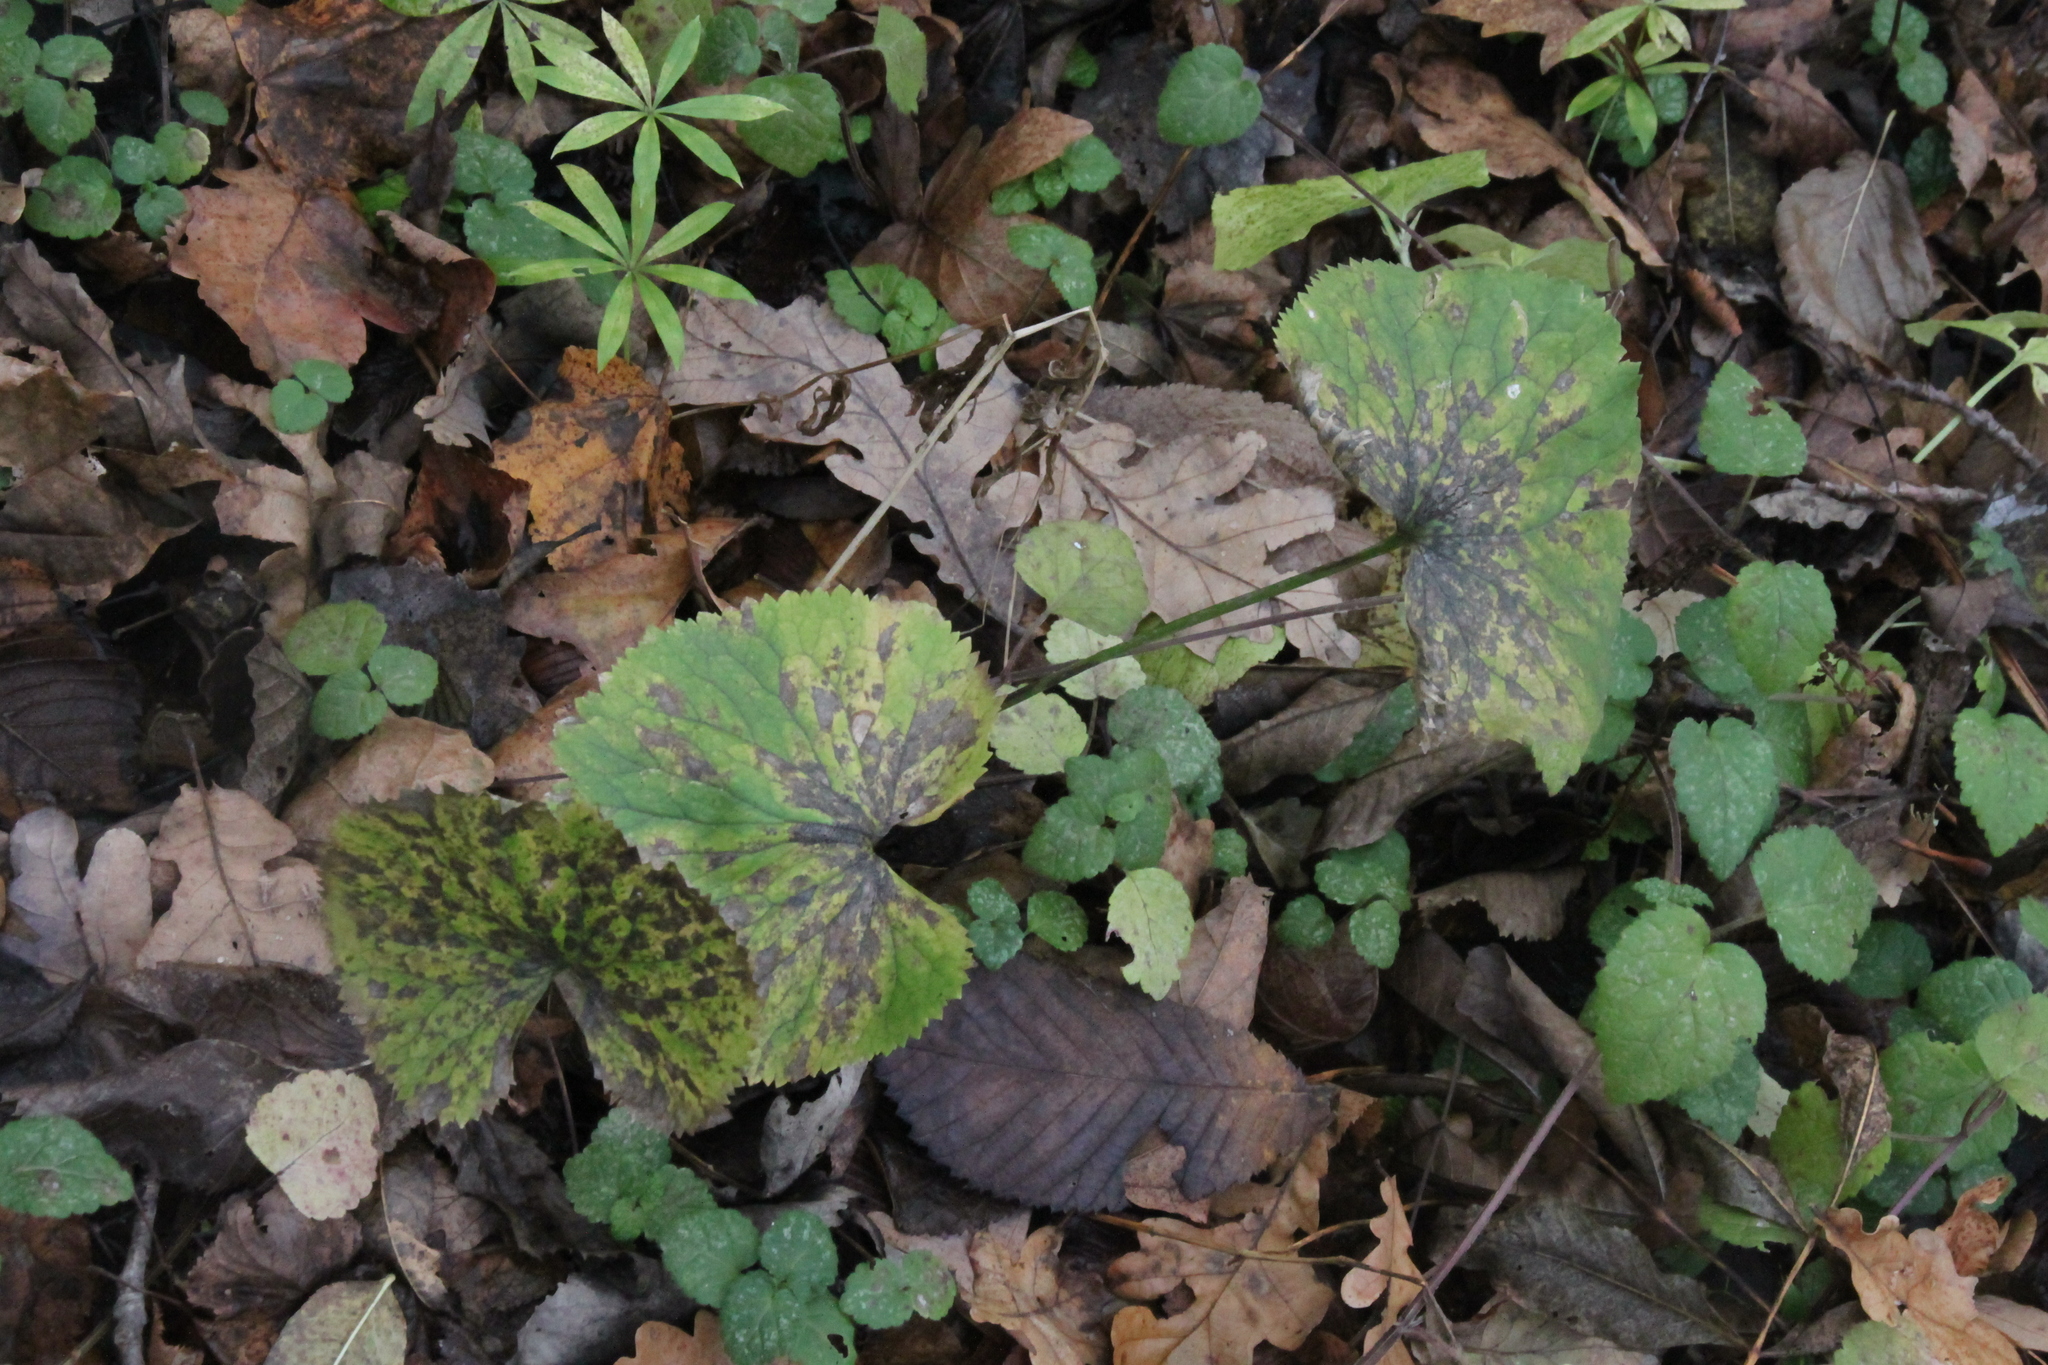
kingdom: Plantae
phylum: Tracheophyta
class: Magnoliopsida
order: Ranunculales
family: Ranunculaceae
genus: Ranunculus
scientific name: Ranunculus cassubicus
